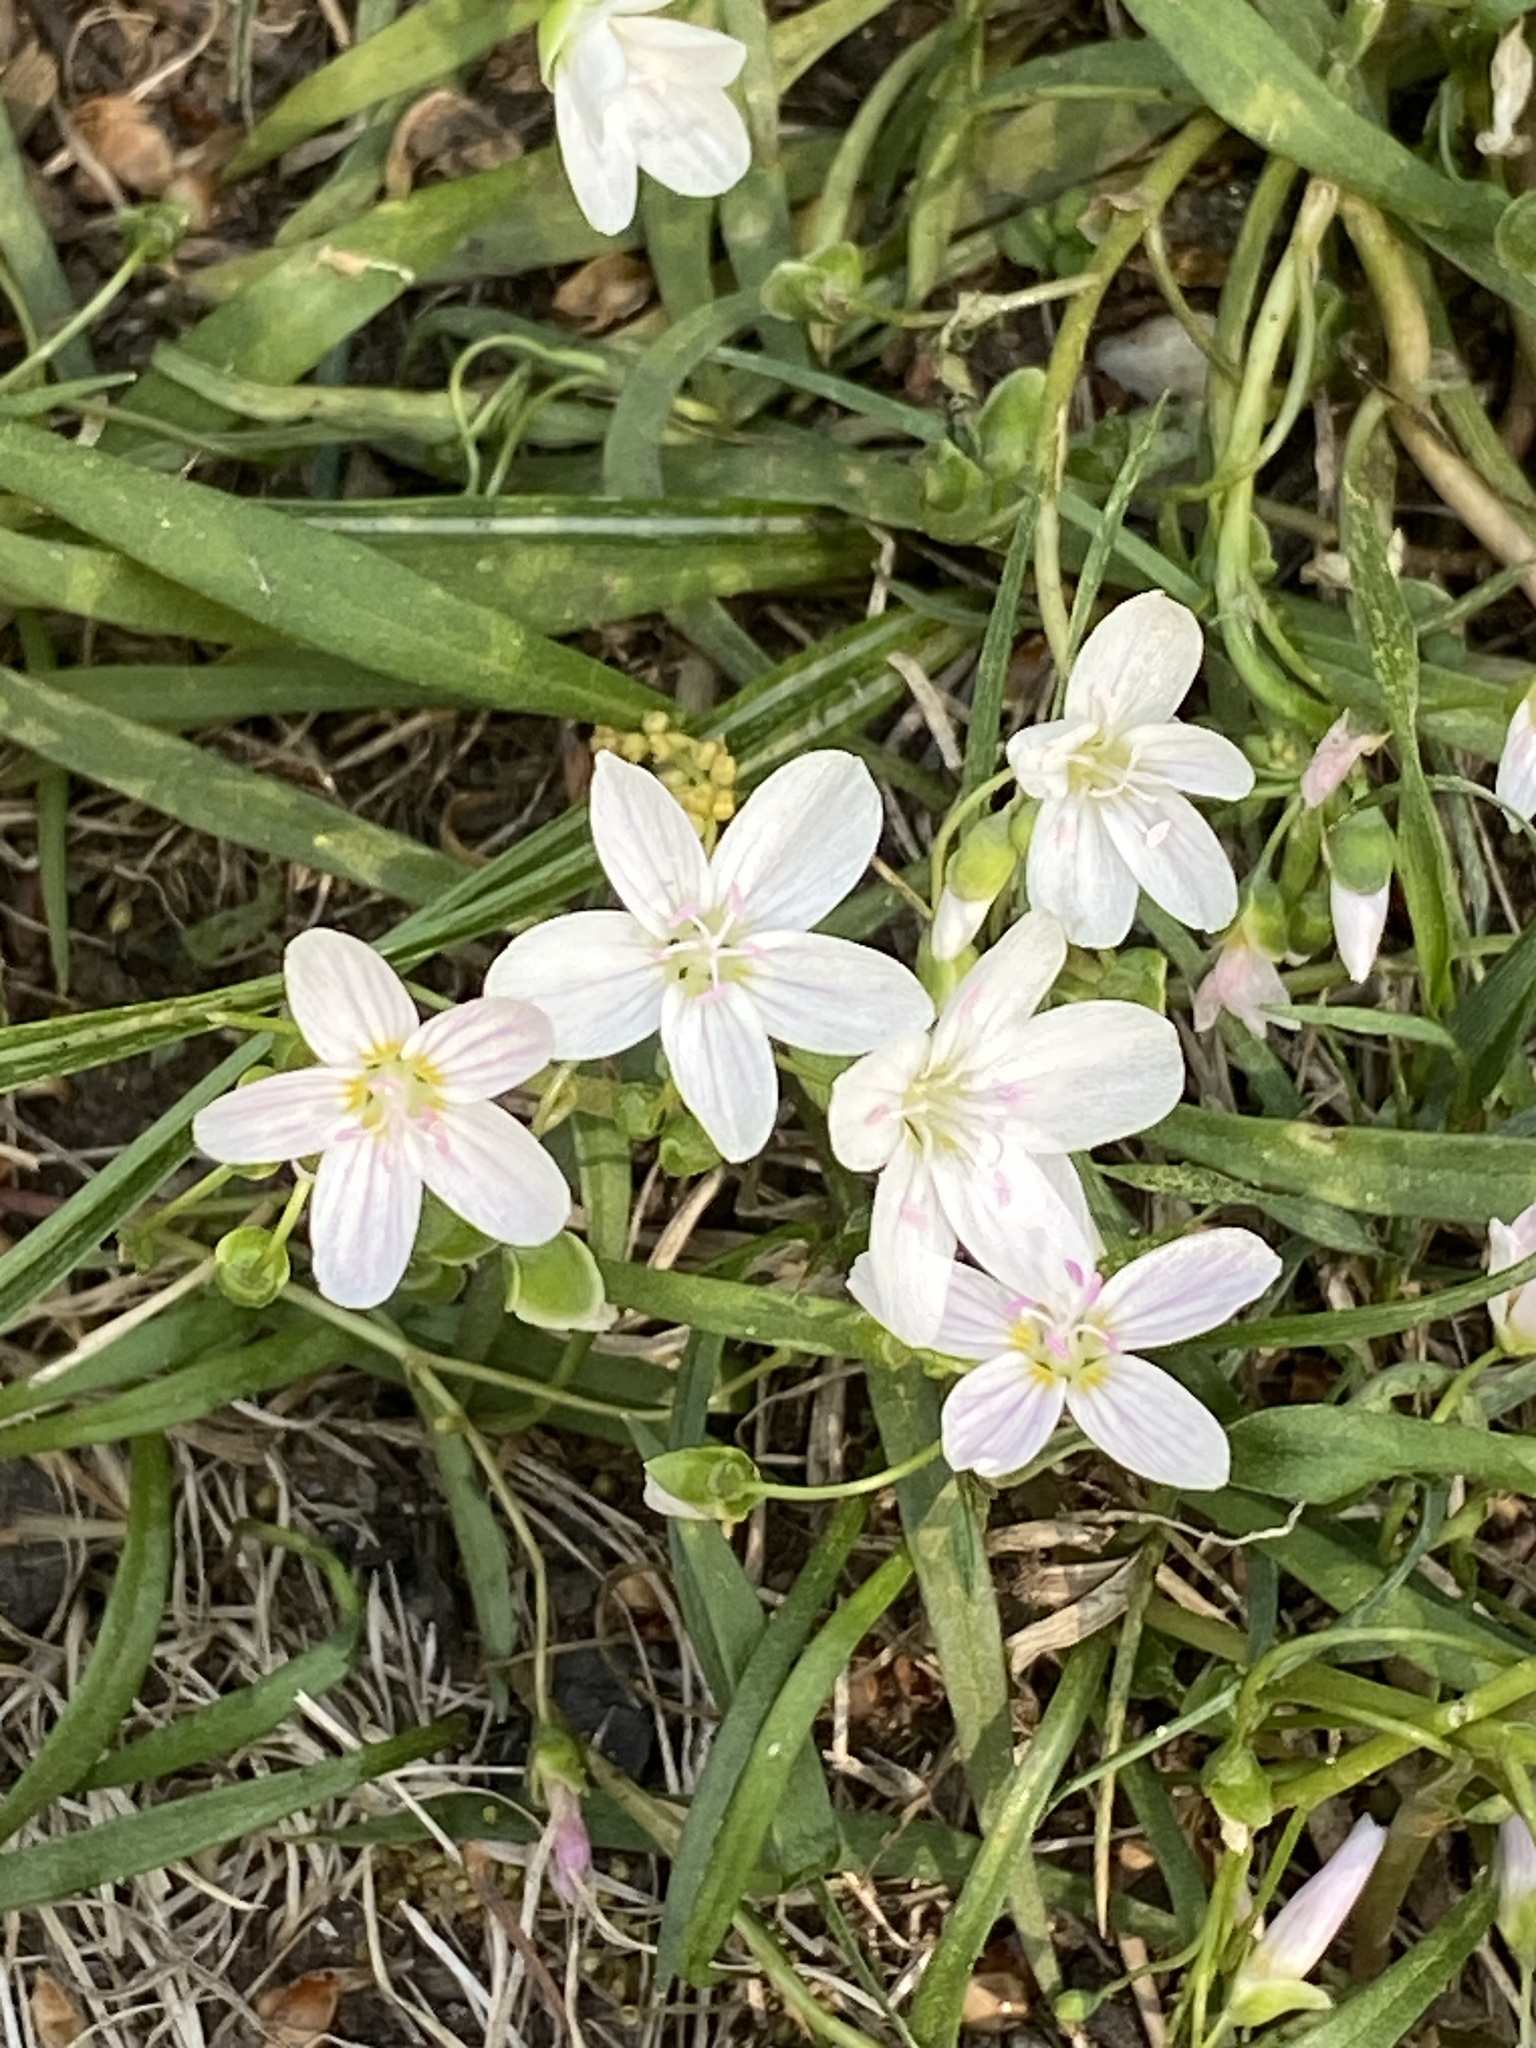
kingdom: Plantae
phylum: Tracheophyta
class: Magnoliopsida
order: Caryophyllales
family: Montiaceae
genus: Claytonia
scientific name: Claytonia virginica
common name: Virginia springbeauty
